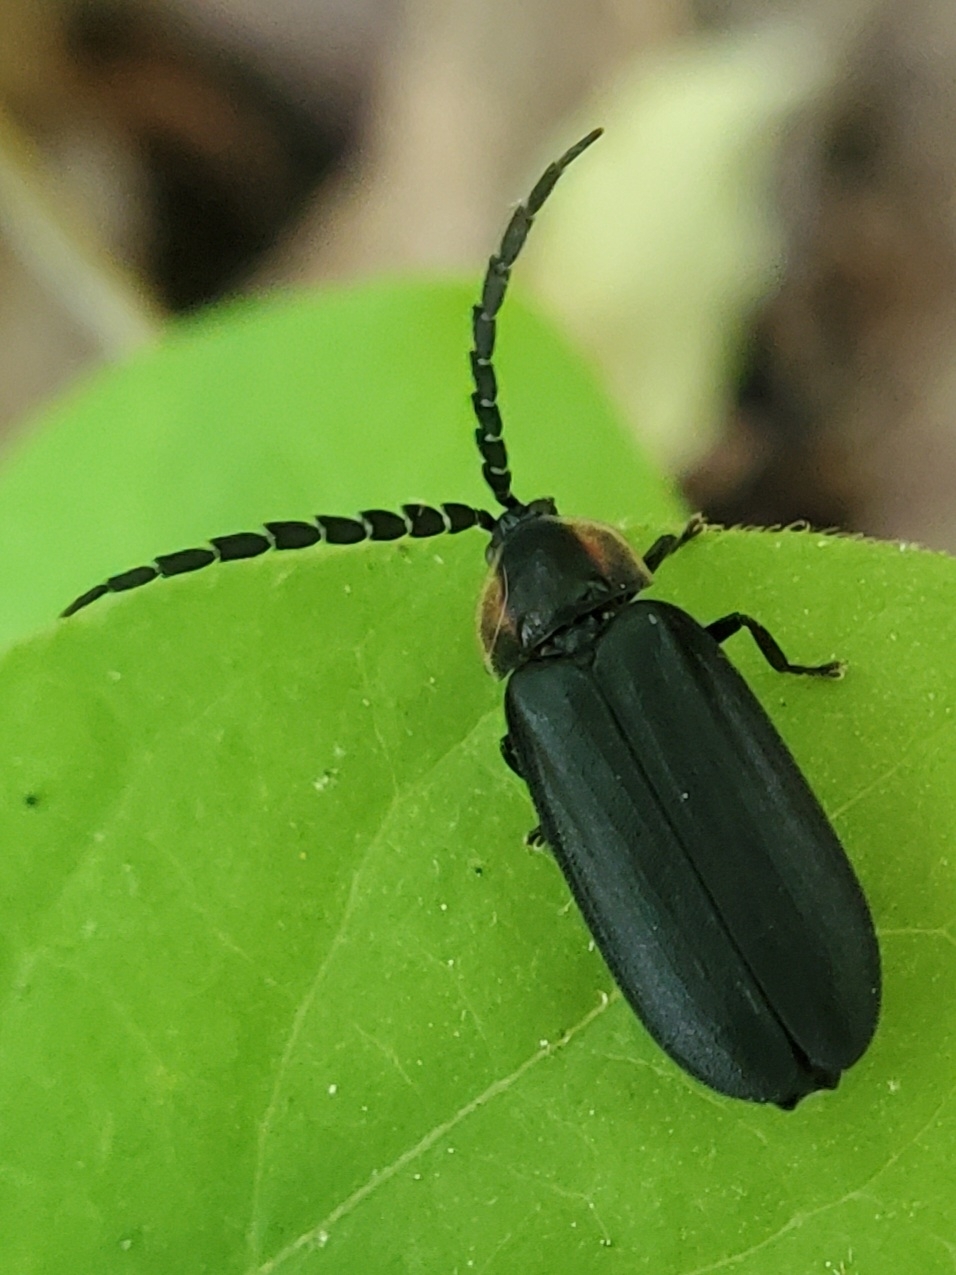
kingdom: Animalia
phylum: Arthropoda
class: Insecta
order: Coleoptera
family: Lampyridae
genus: Lucidota
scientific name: Lucidota atra
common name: Black firefly
